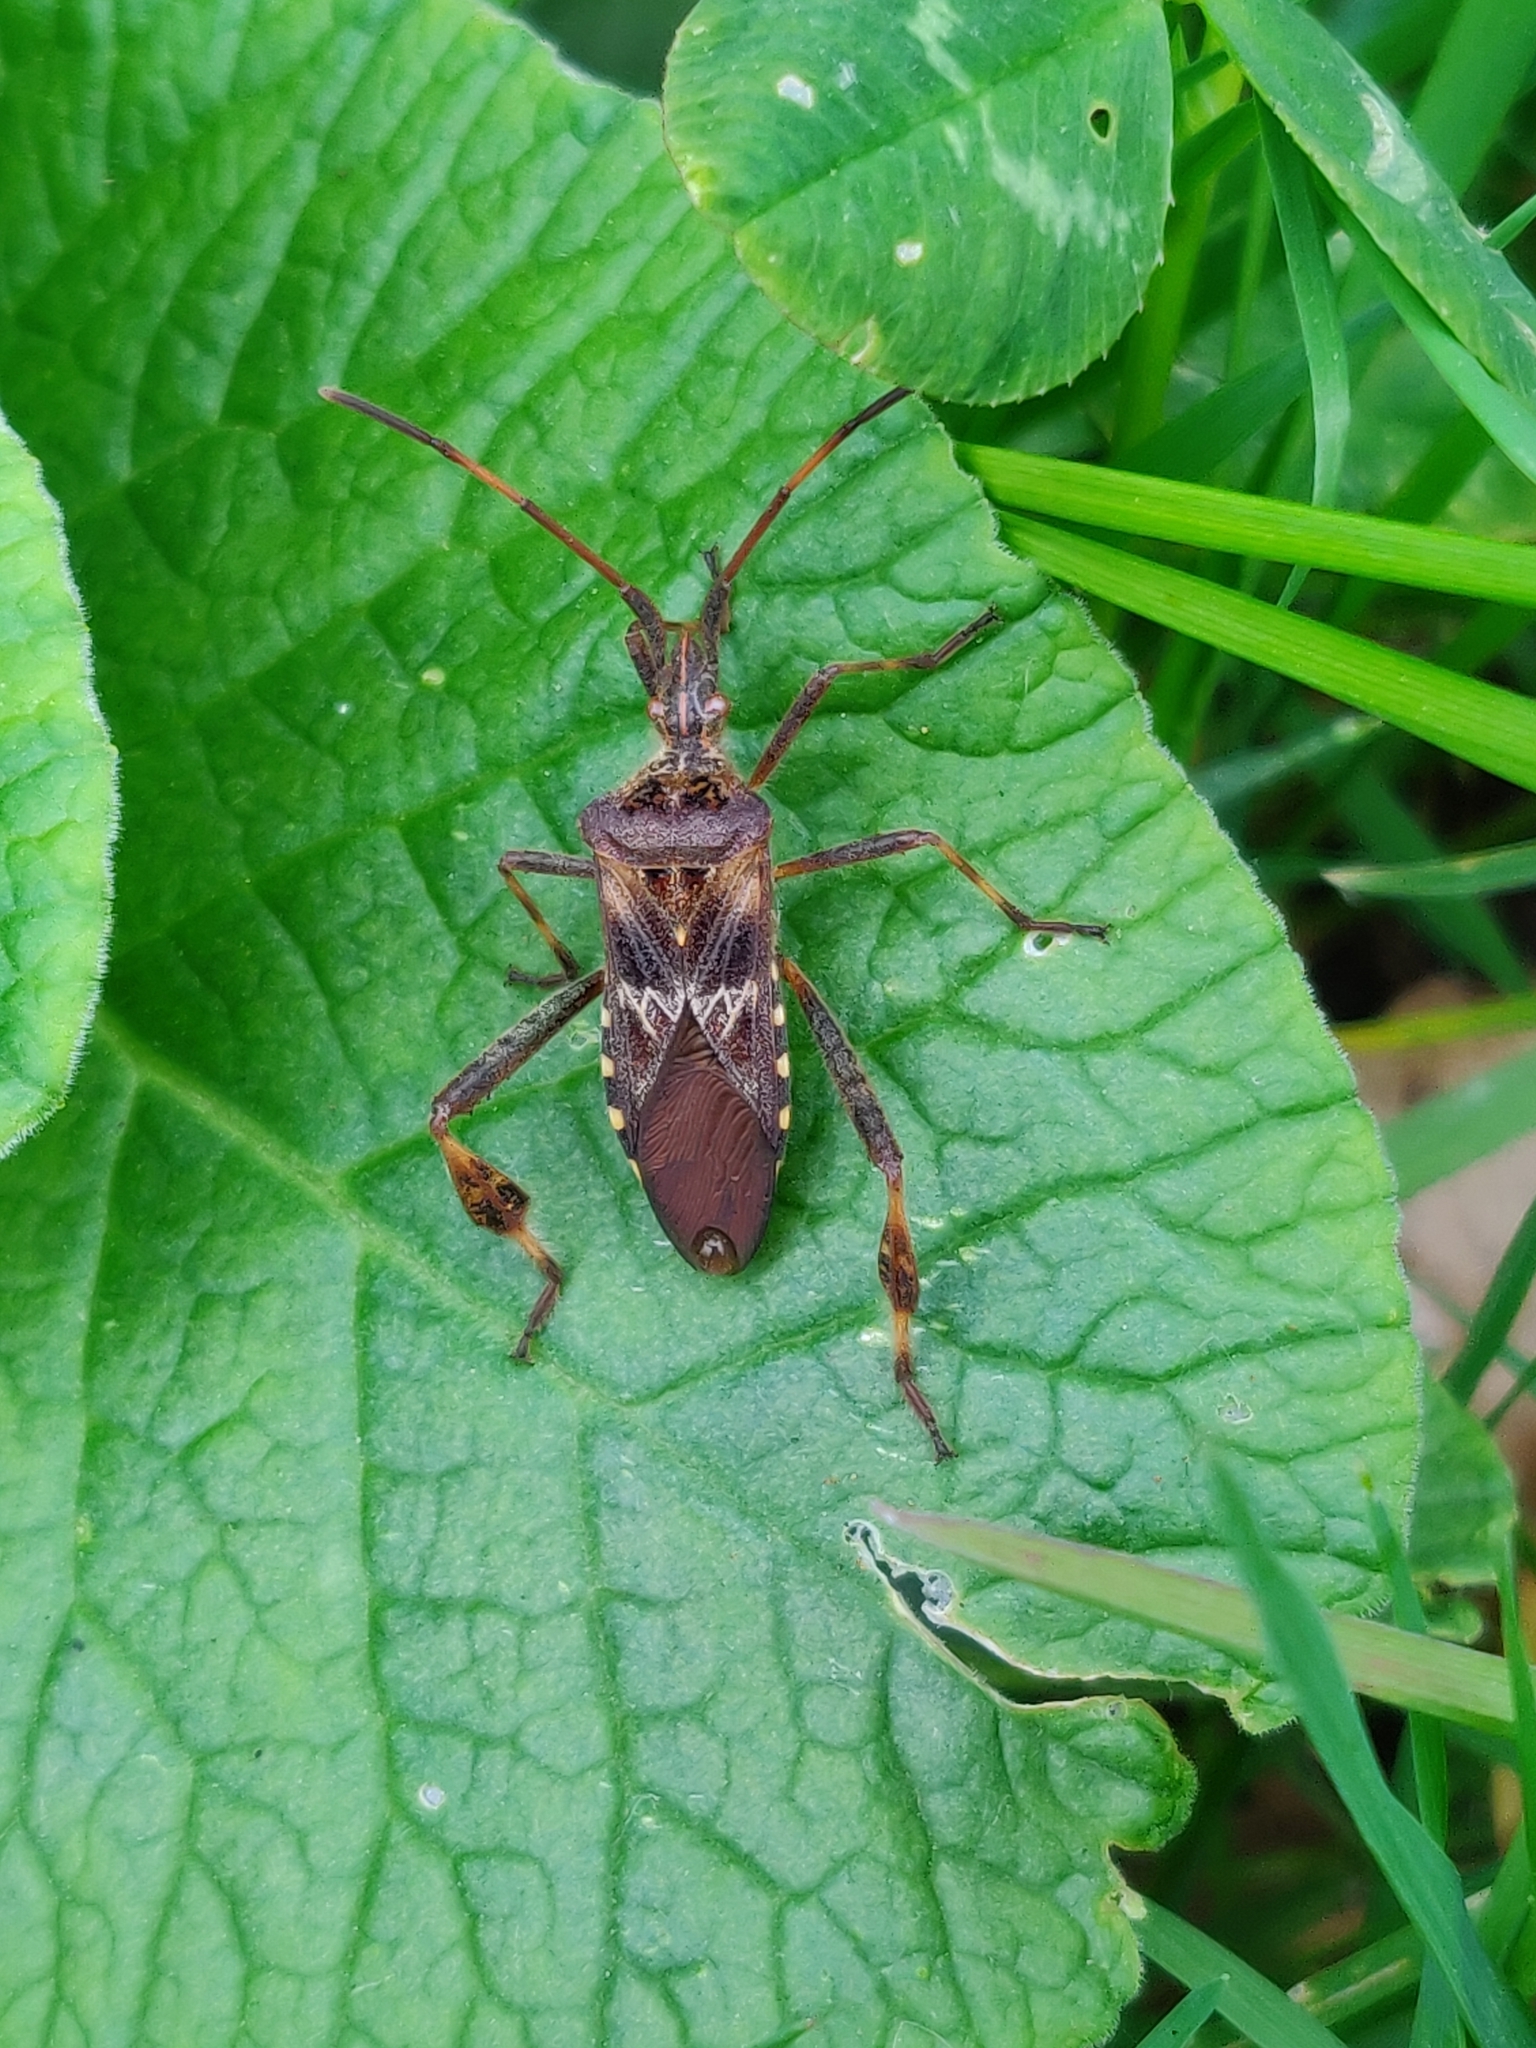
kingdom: Animalia
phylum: Arthropoda
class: Insecta
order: Hemiptera
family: Coreidae
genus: Leptoglossus
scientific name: Leptoglossus occidentalis
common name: Western conifer-seed bug
